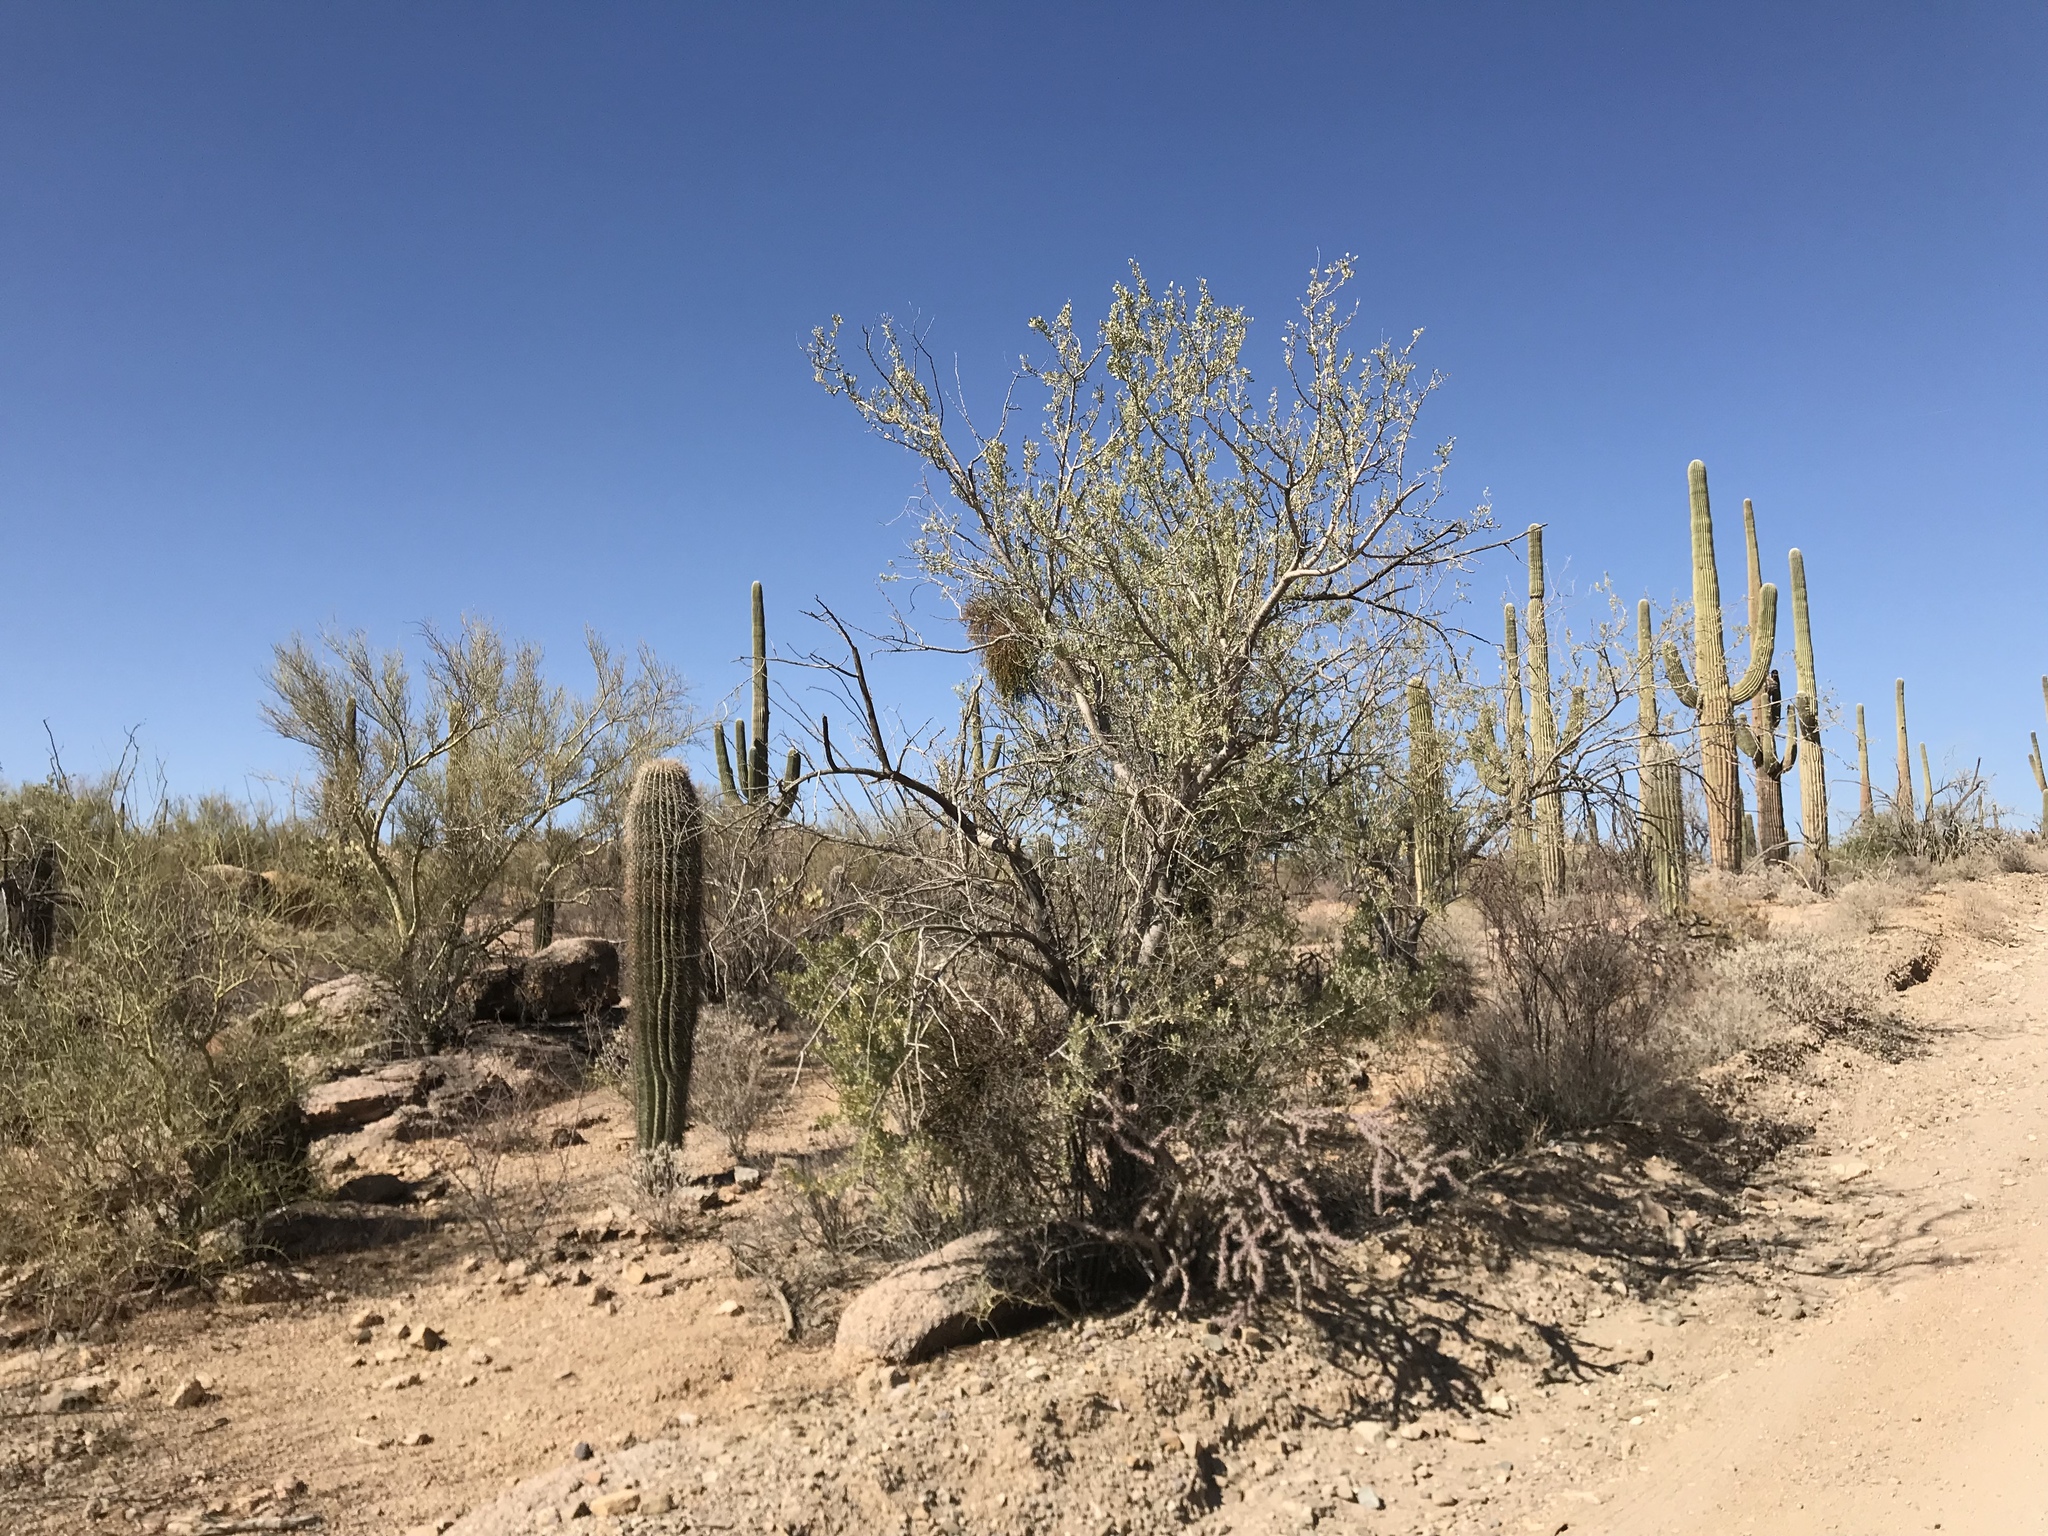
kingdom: Plantae
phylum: Tracheophyta
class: Magnoliopsida
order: Fabales
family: Fabaceae
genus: Olneya
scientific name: Olneya tesota
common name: Desert ironwood
